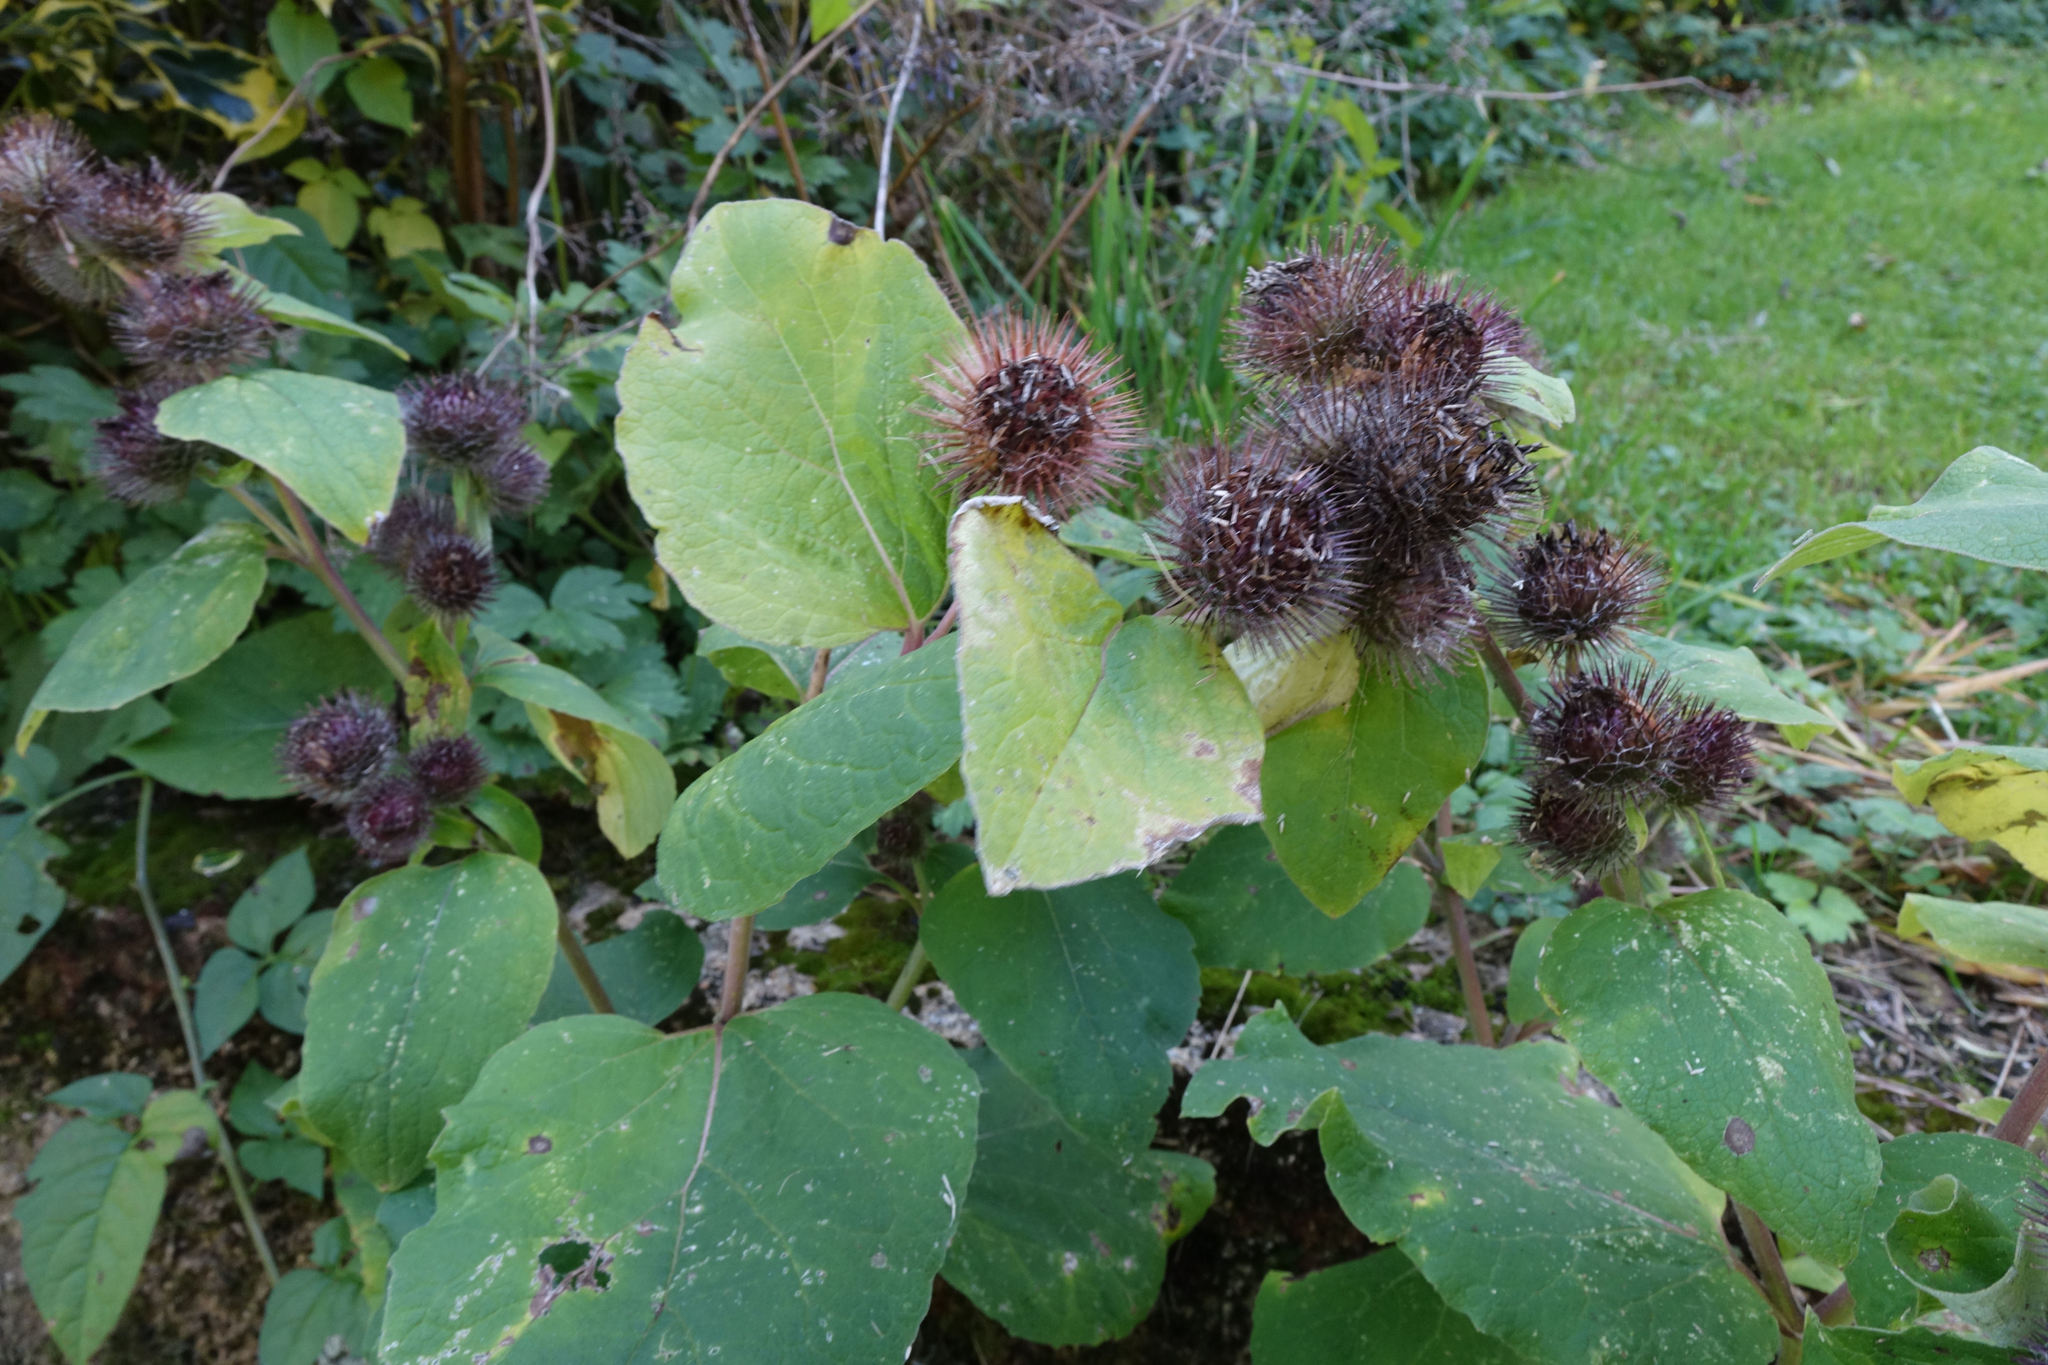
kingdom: Plantae
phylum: Tracheophyta
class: Magnoliopsida
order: Asterales
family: Asteraceae
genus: Arctium
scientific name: Arctium minus
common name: Lesser burdock
